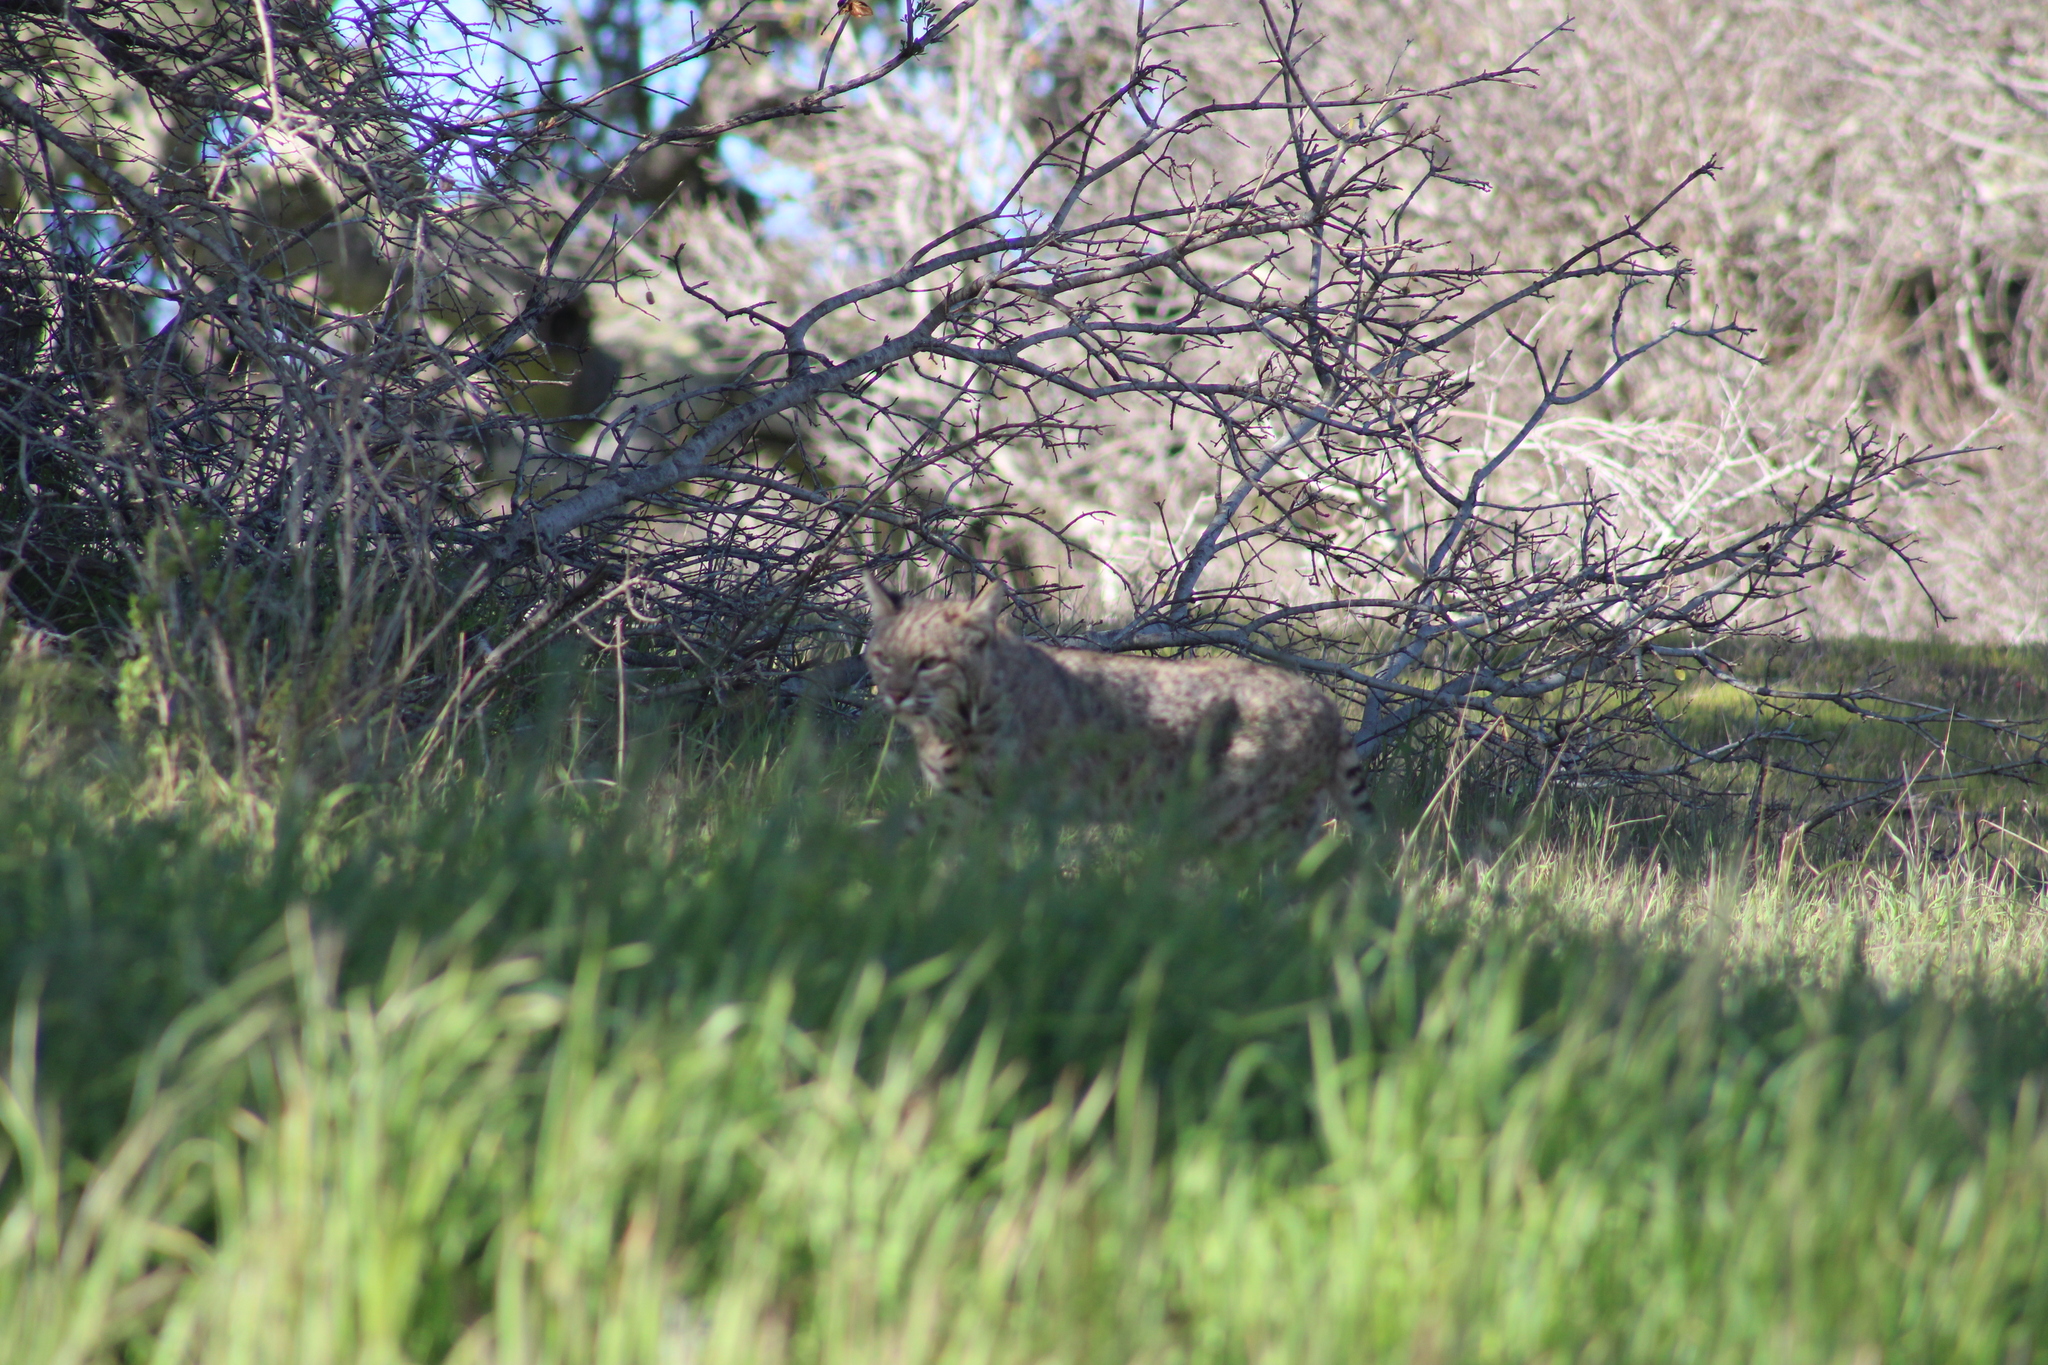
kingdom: Animalia
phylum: Chordata
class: Mammalia
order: Carnivora
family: Felidae
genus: Lynx
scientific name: Lynx rufus
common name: Bobcat
